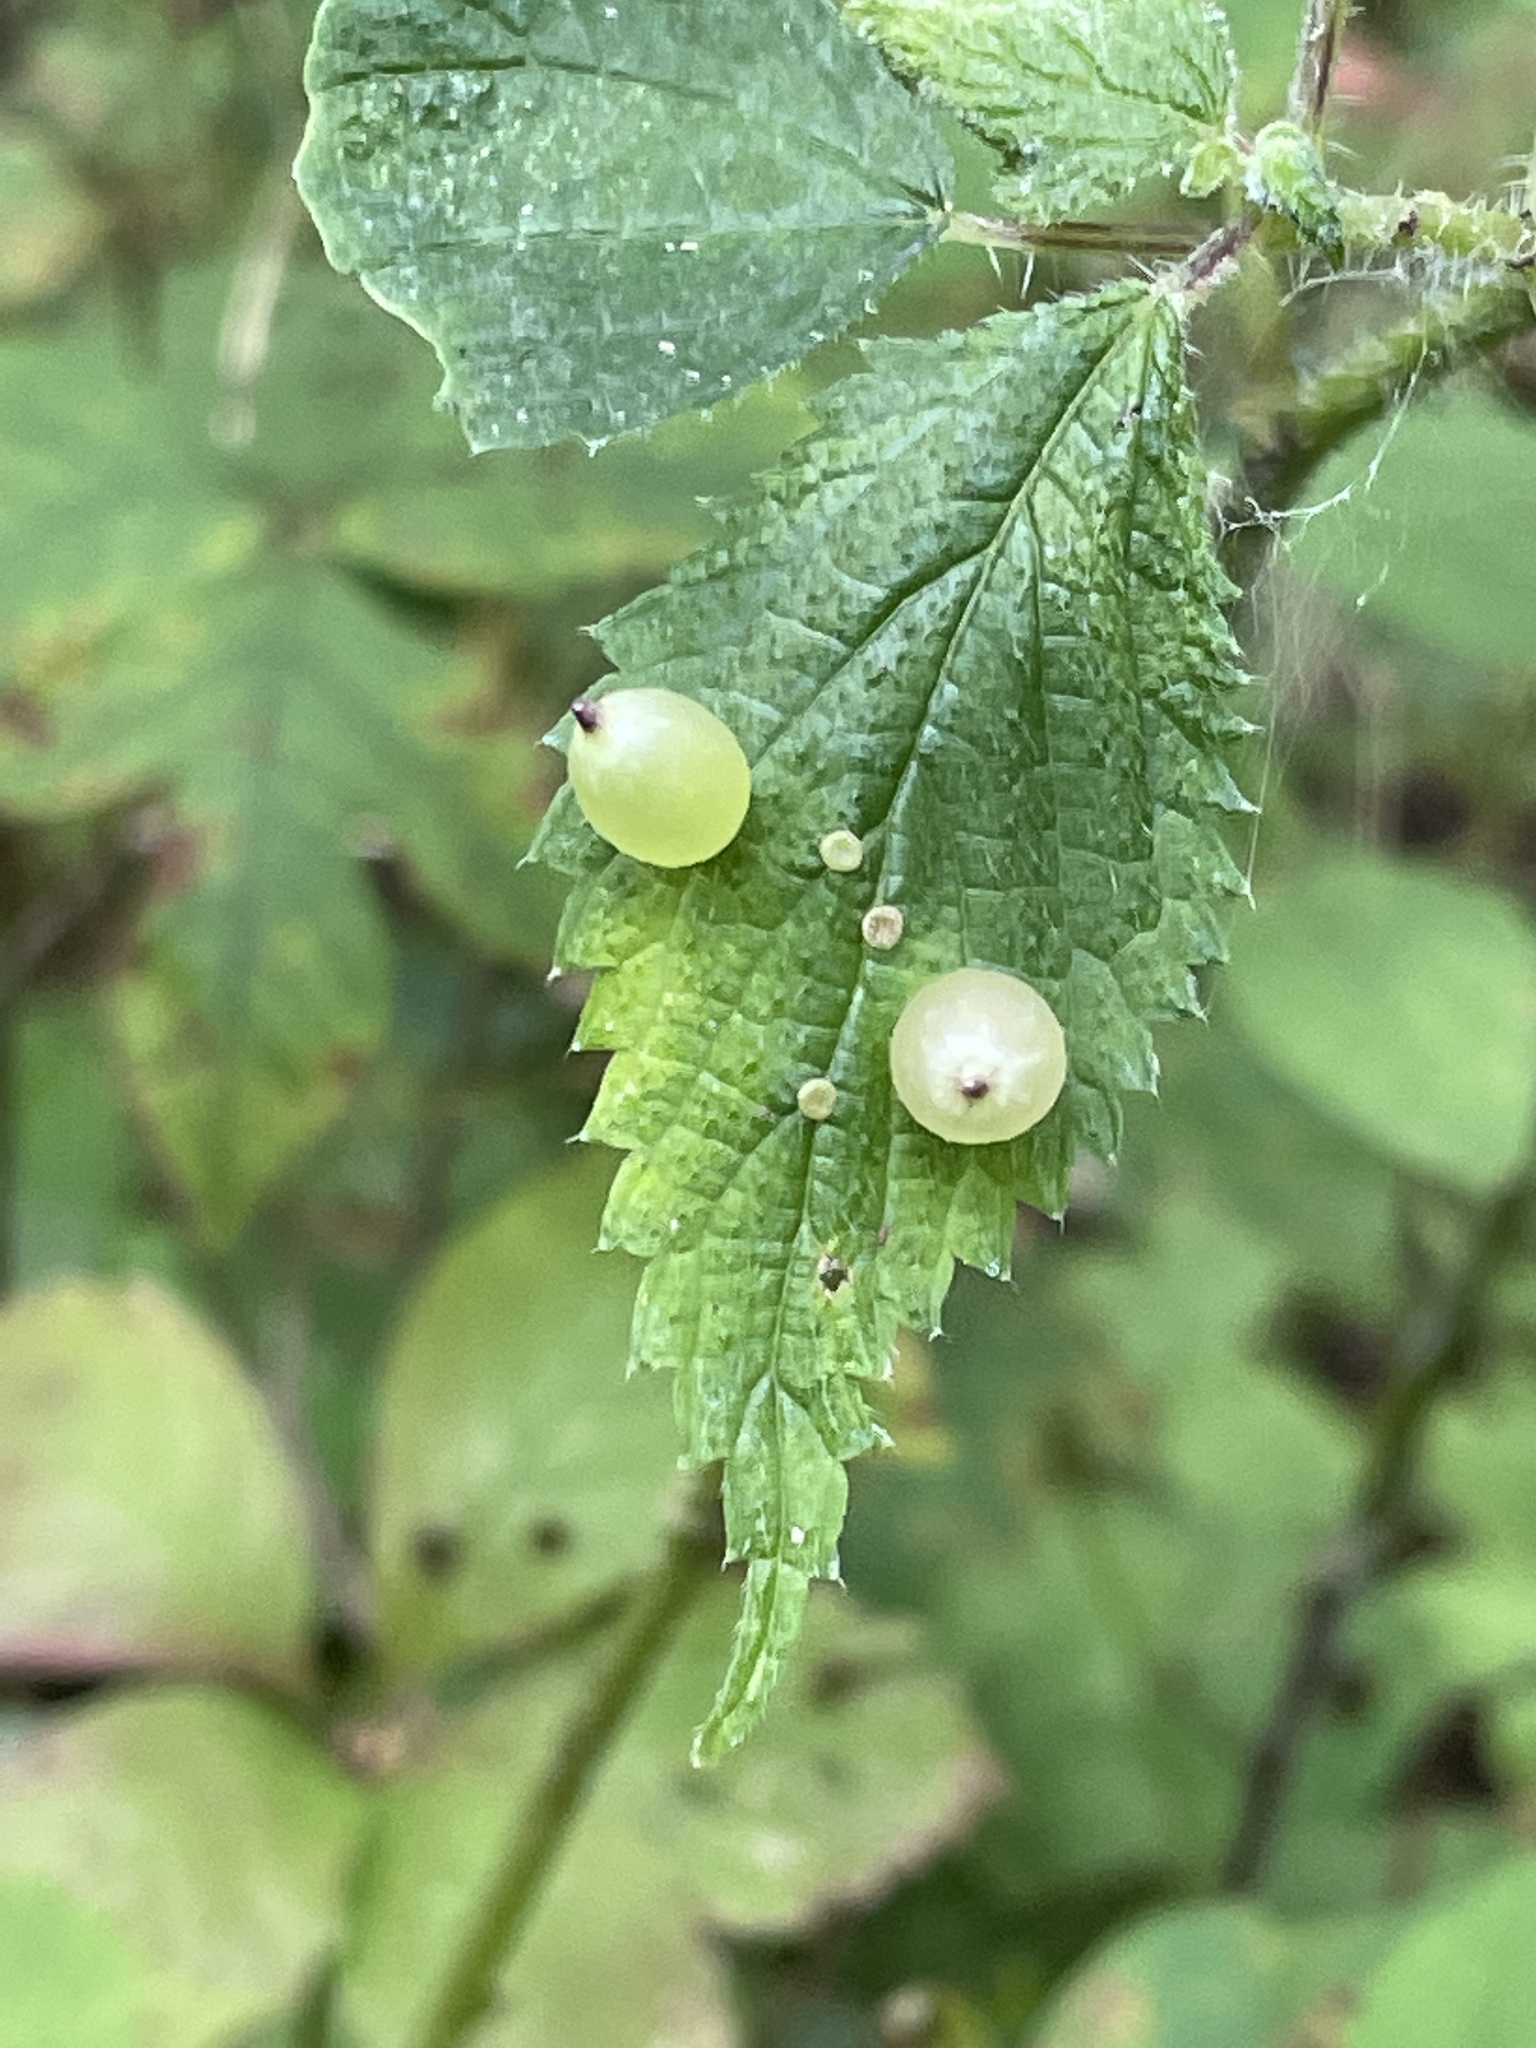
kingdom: Animalia
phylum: Arthropoda
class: Insecta
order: Diptera
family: Cecidomyiidae
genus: Dasineura
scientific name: Dasineura investita
